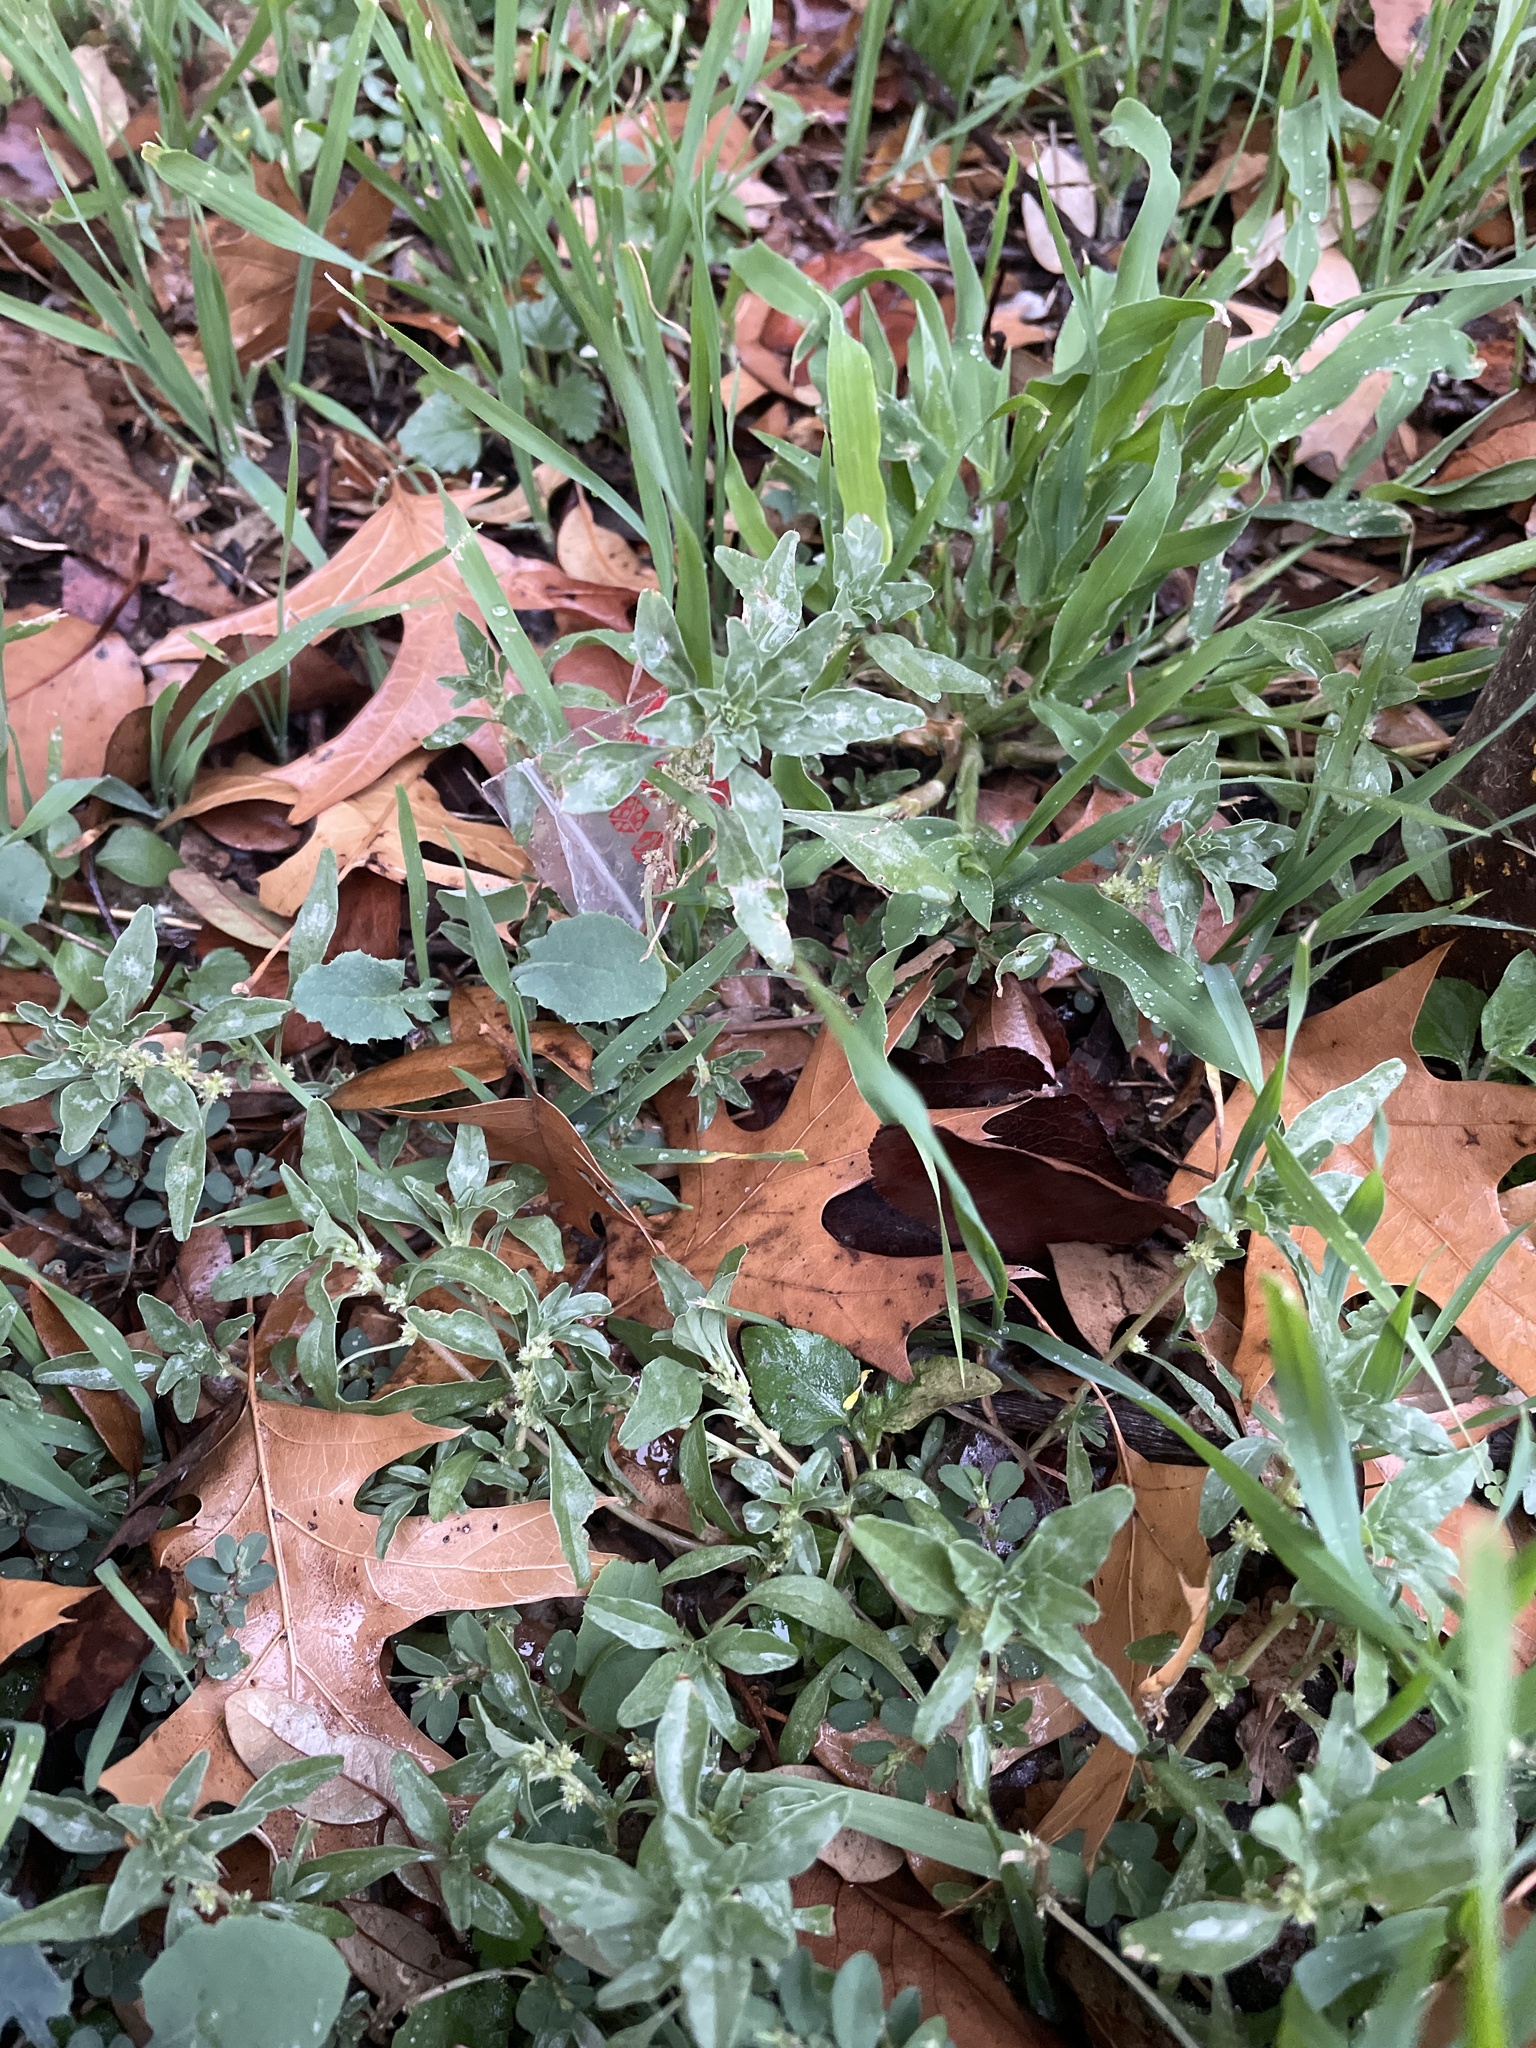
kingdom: Plantae
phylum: Tracheophyta
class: Magnoliopsida
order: Caryophyllales
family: Amaranthaceae
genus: Amaranthus
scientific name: Amaranthus polygonoides
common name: Tropical amaranth
